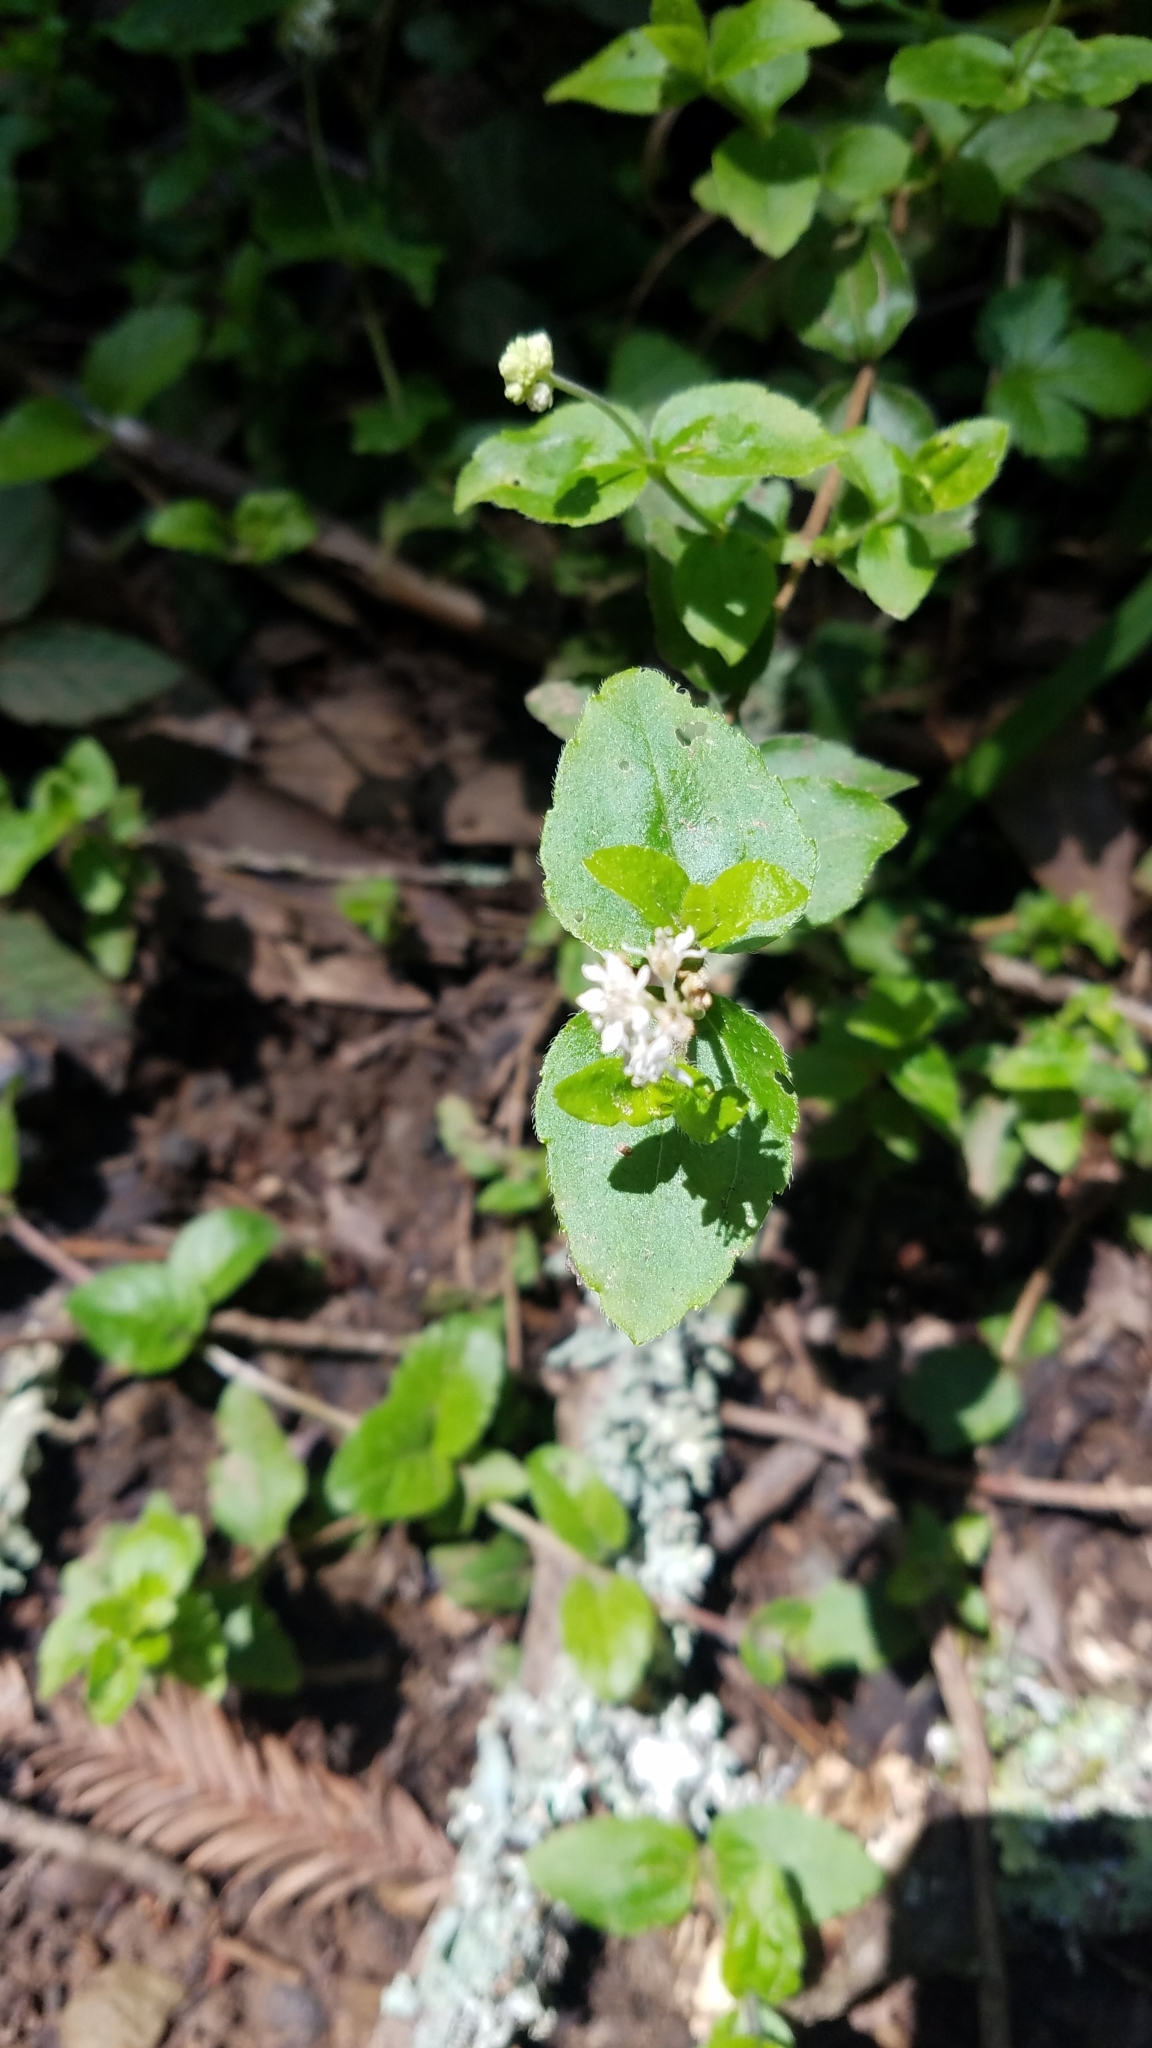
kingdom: Plantae
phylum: Tracheophyta
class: Magnoliopsida
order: Cornales
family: Hydrangeaceae
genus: Whipplea
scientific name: Whipplea modesta
